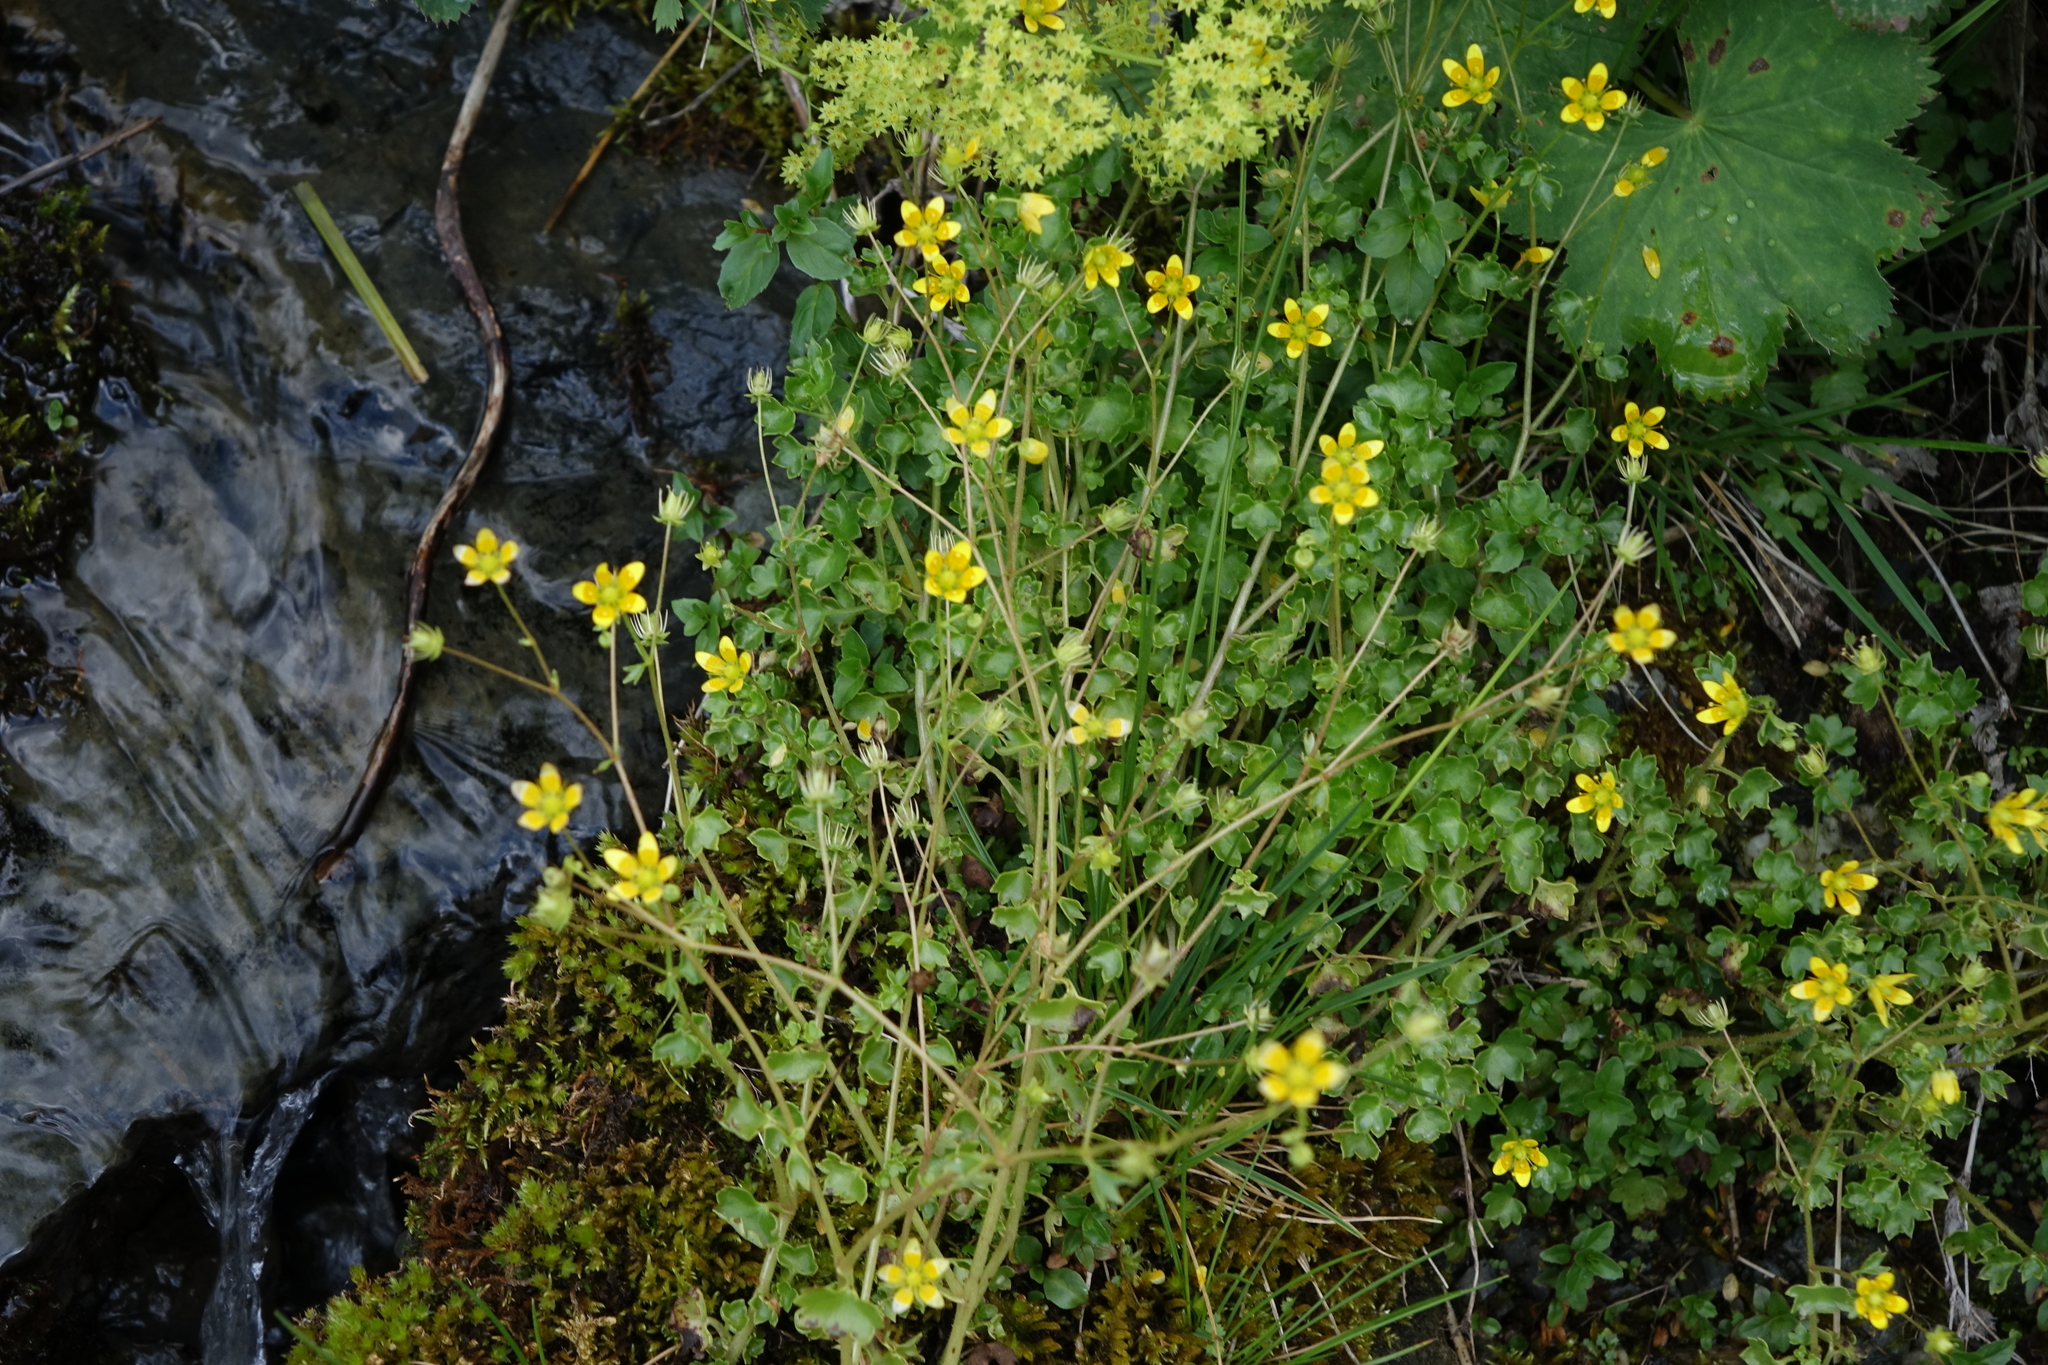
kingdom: Plantae
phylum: Tracheophyta
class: Magnoliopsida
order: Saxifragales
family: Saxifragaceae
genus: Saxifraga
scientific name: Saxifraga cymbalaria
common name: Celandine saxifrage
